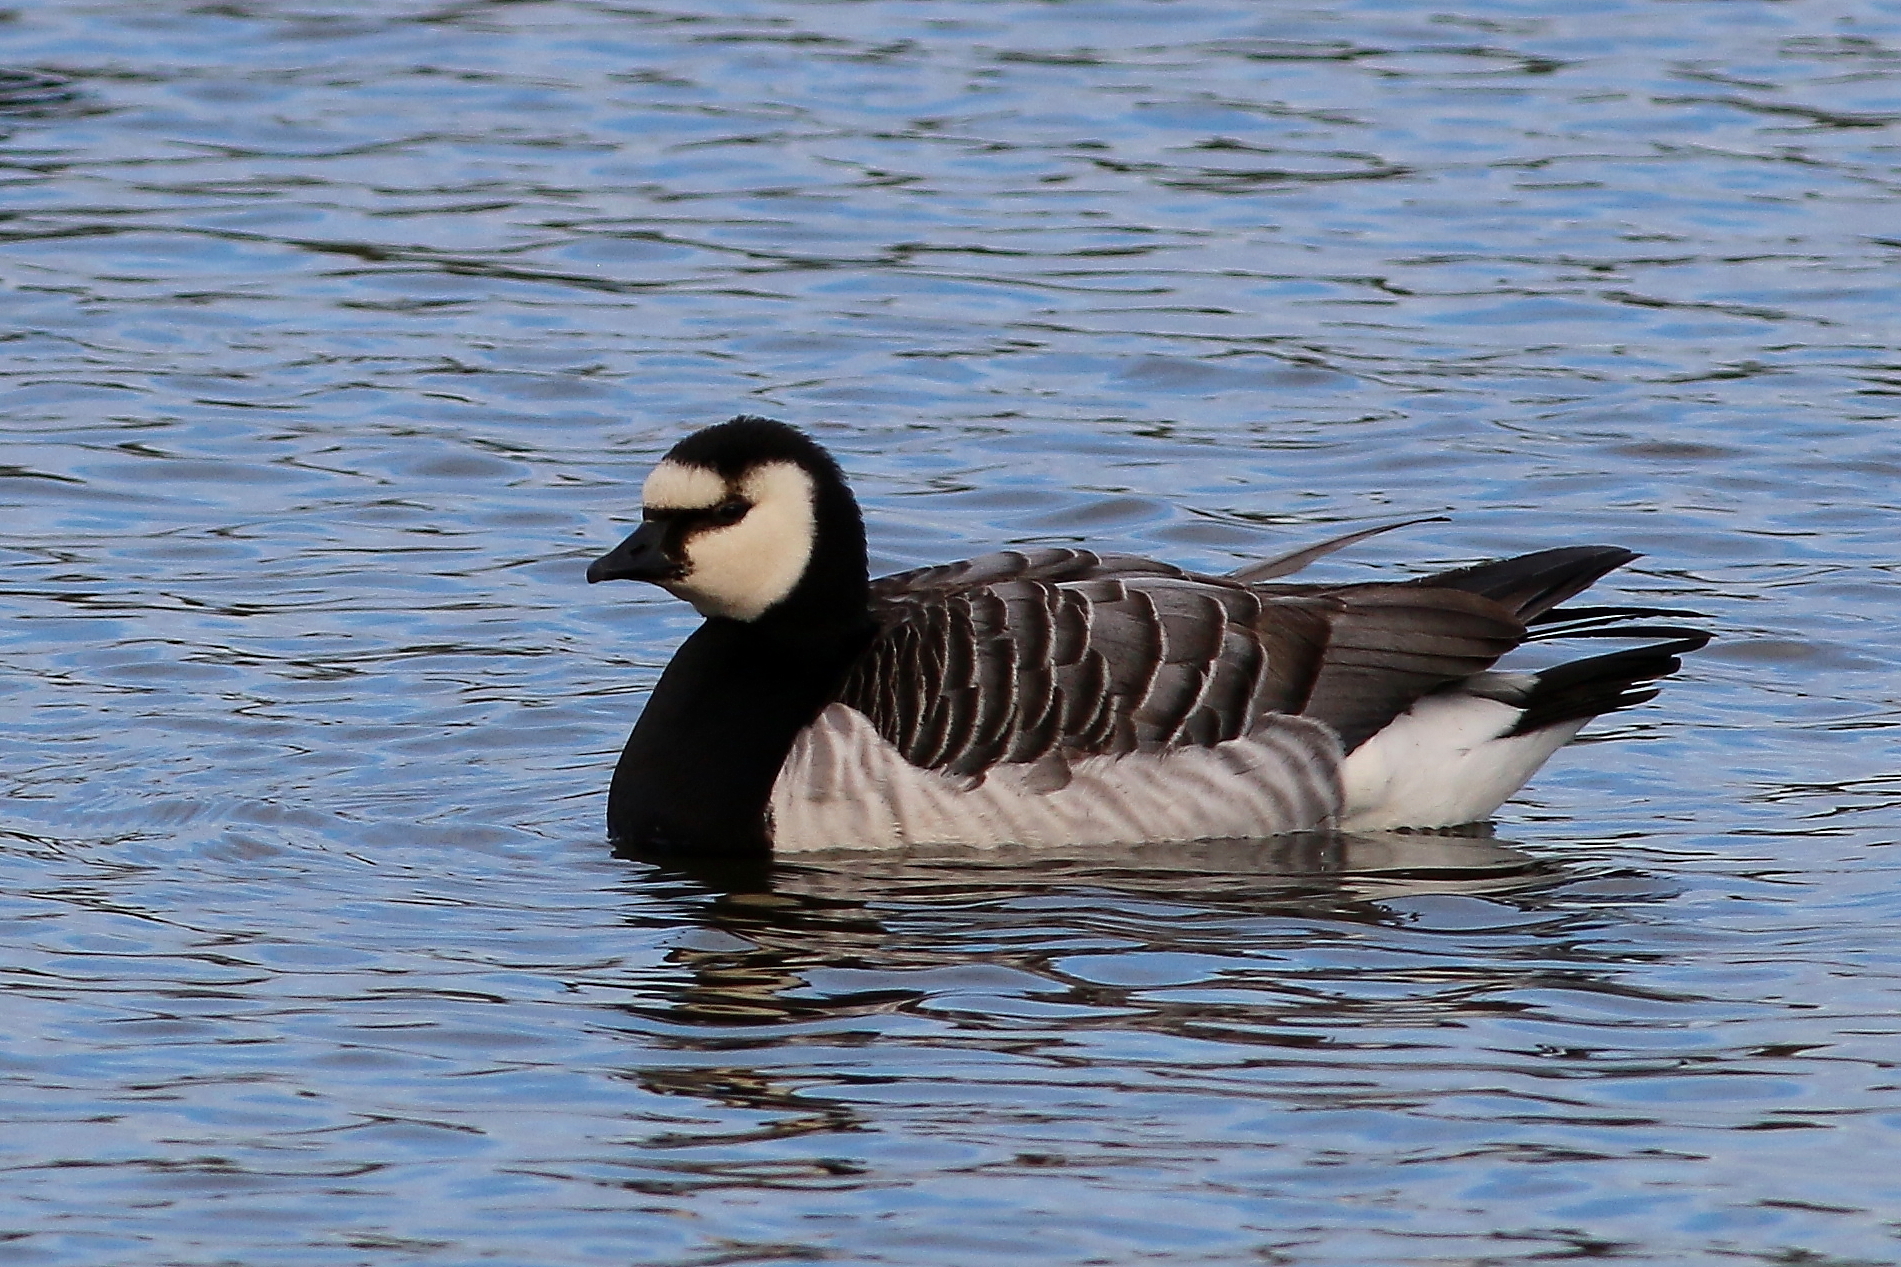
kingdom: Animalia
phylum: Chordata
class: Aves
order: Anseriformes
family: Anatidae
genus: Branta
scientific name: Branta leucopsis
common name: Barnacle goose
